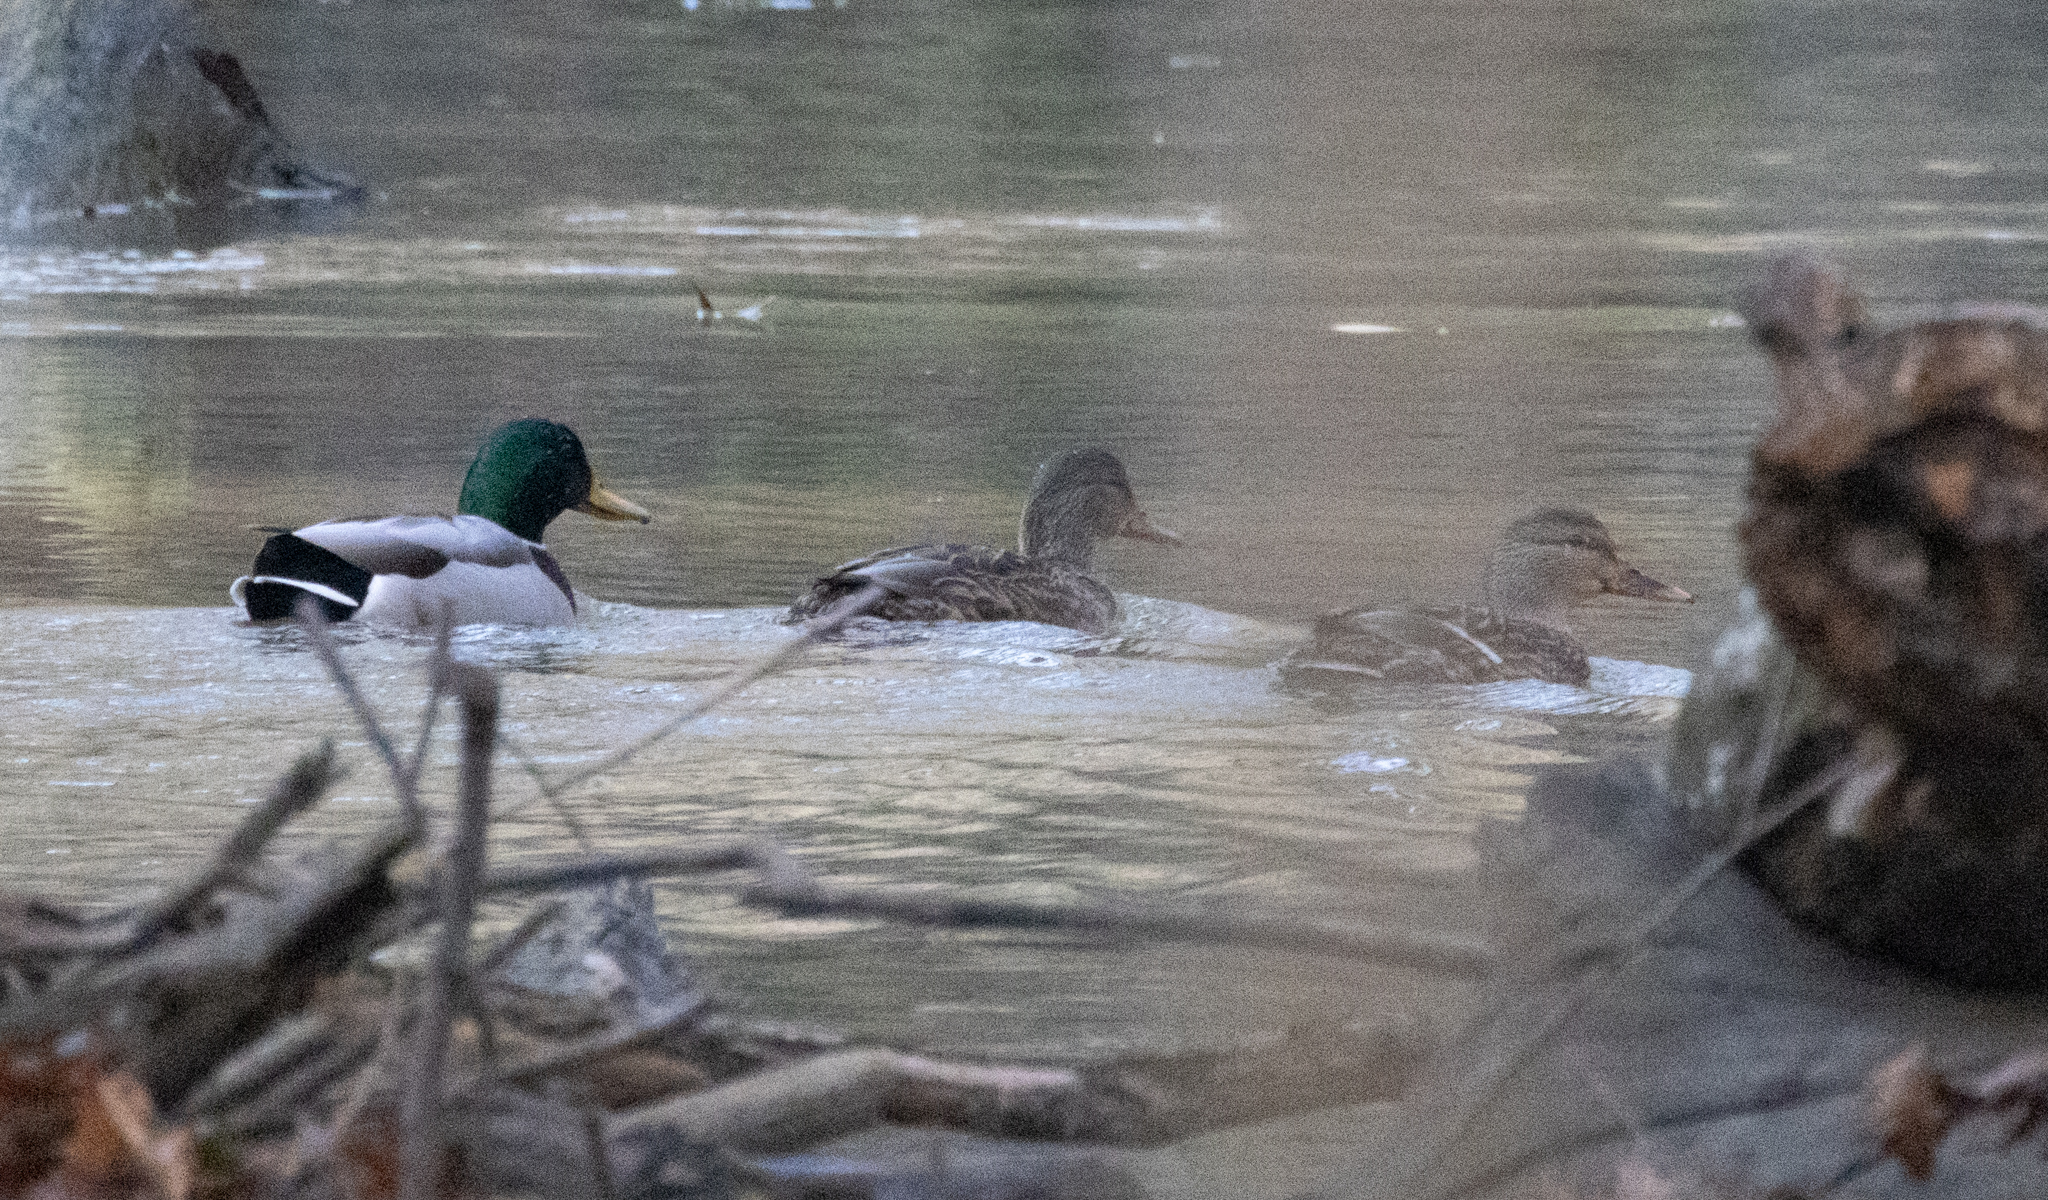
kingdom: Animalia
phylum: Chordata
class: Aves
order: Anseriformes
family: Anatidae
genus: Anas
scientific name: Anas platyrhynchos
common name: Mallard
